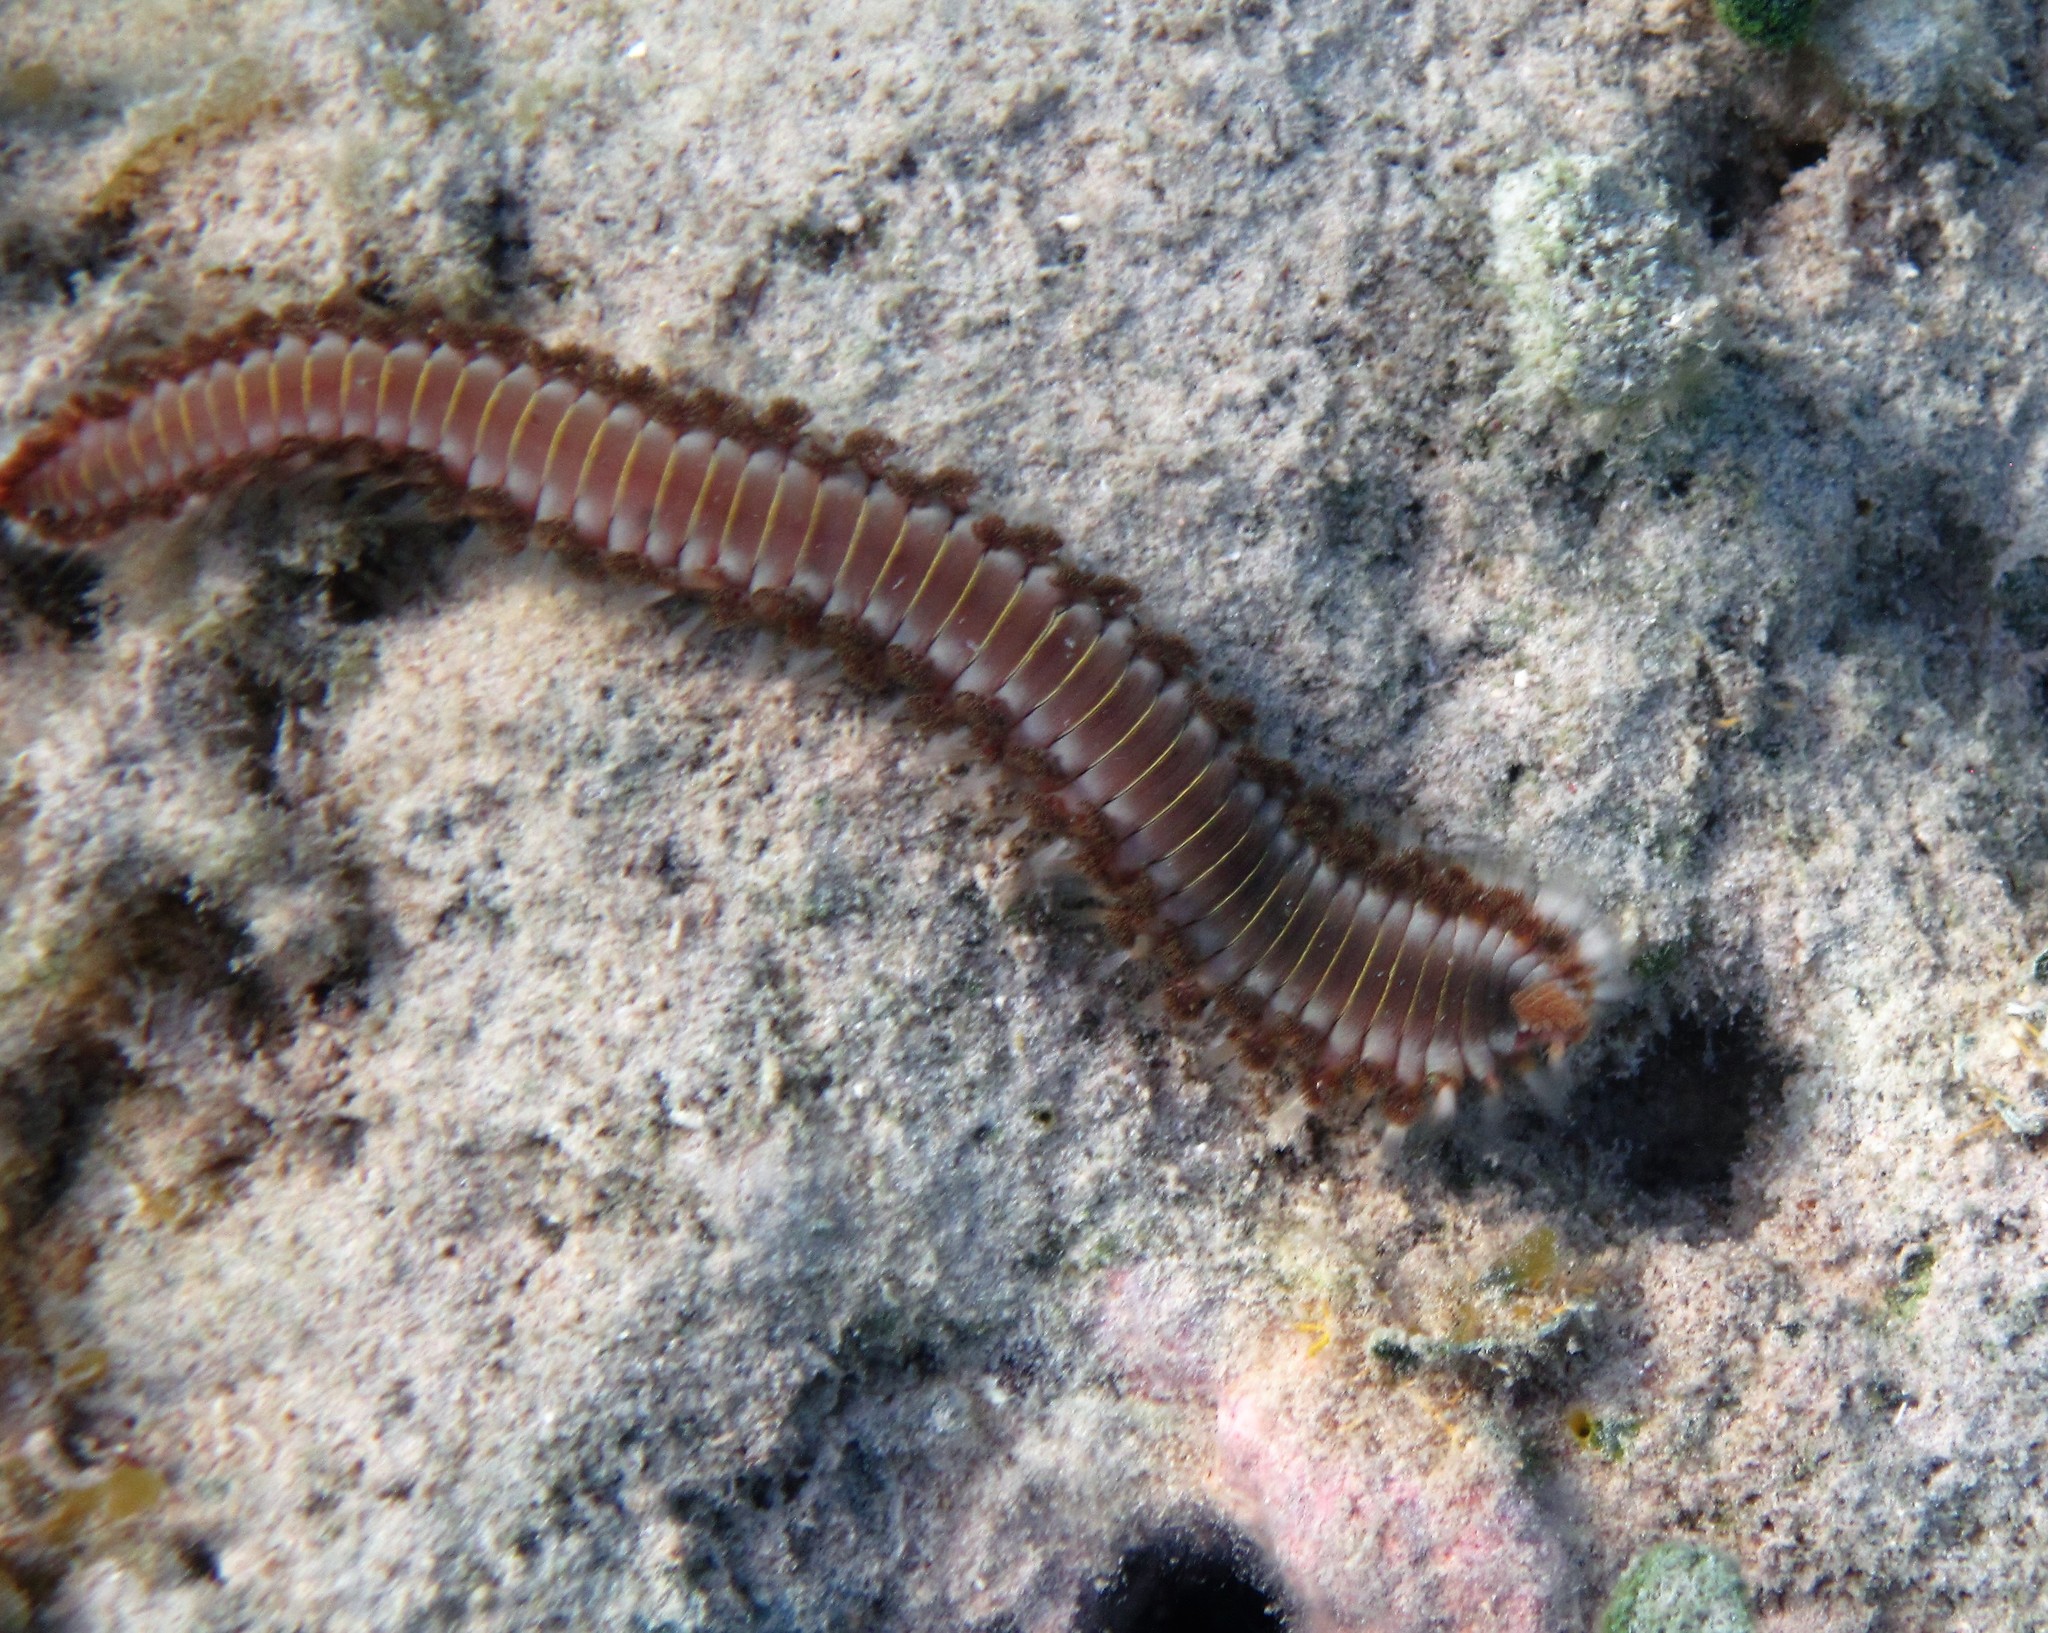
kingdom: Animalia
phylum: Annelida
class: Polychaeta
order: Amphinomida
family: Amphinomidae
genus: Hermodice
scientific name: Hermodice carunculata
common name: Bearded fireworm
